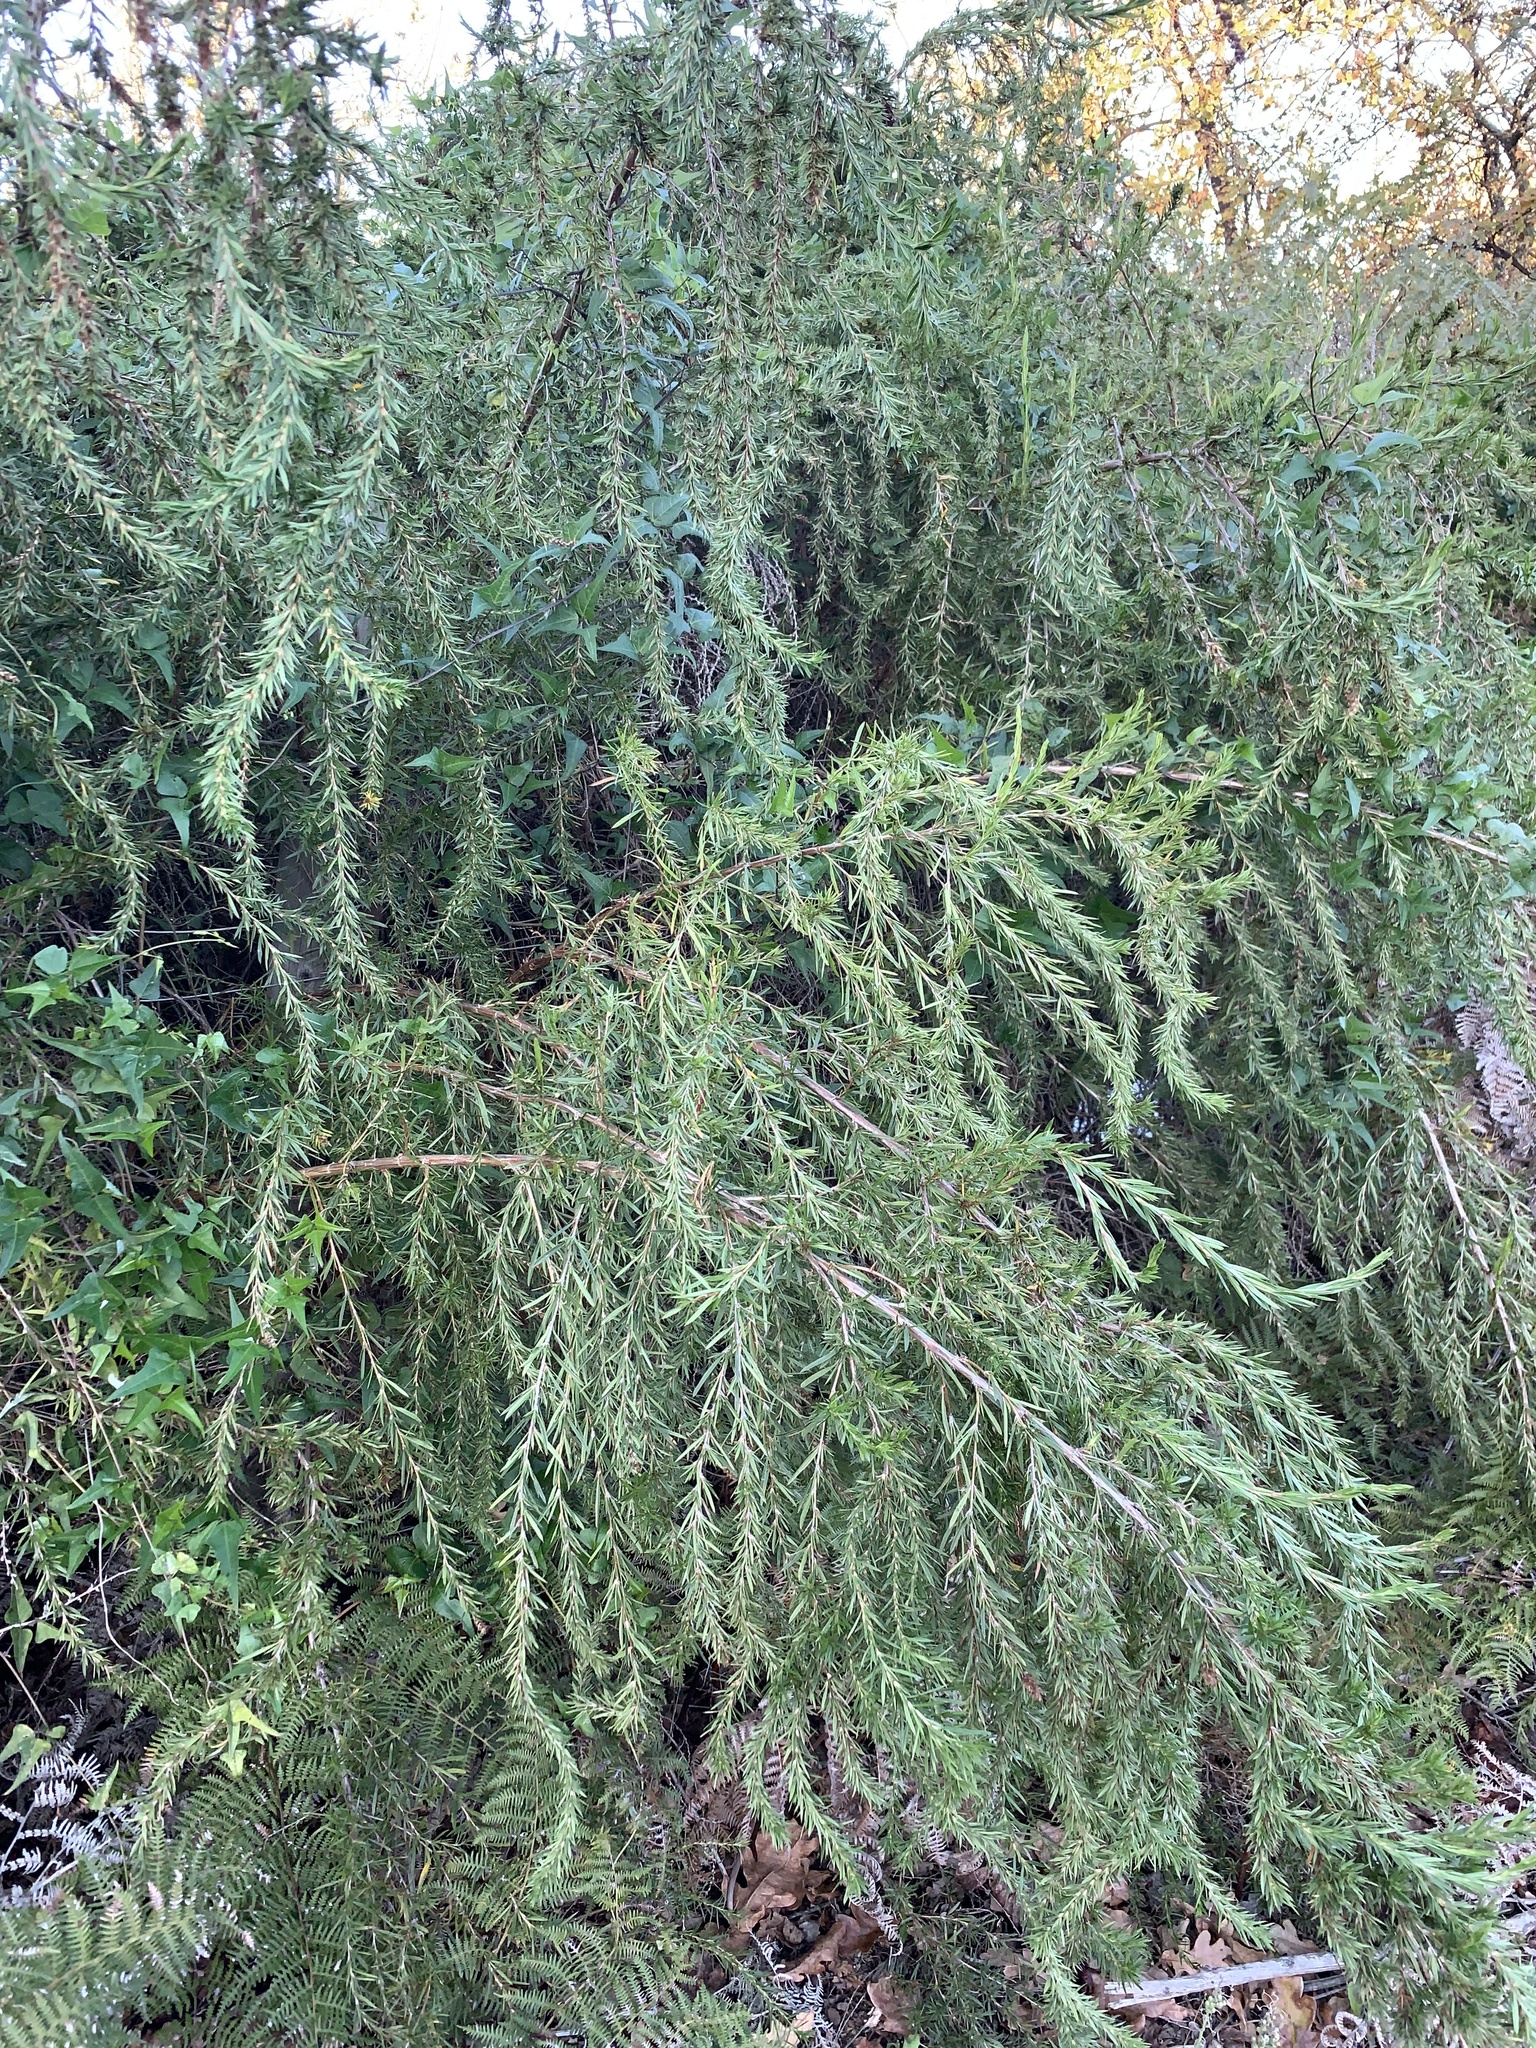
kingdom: Plantae
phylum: Tracheophyta
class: Magnoliopsida
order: Rosales
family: Rosaceae
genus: Cliffortia
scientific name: Cliffortia strobilifera
